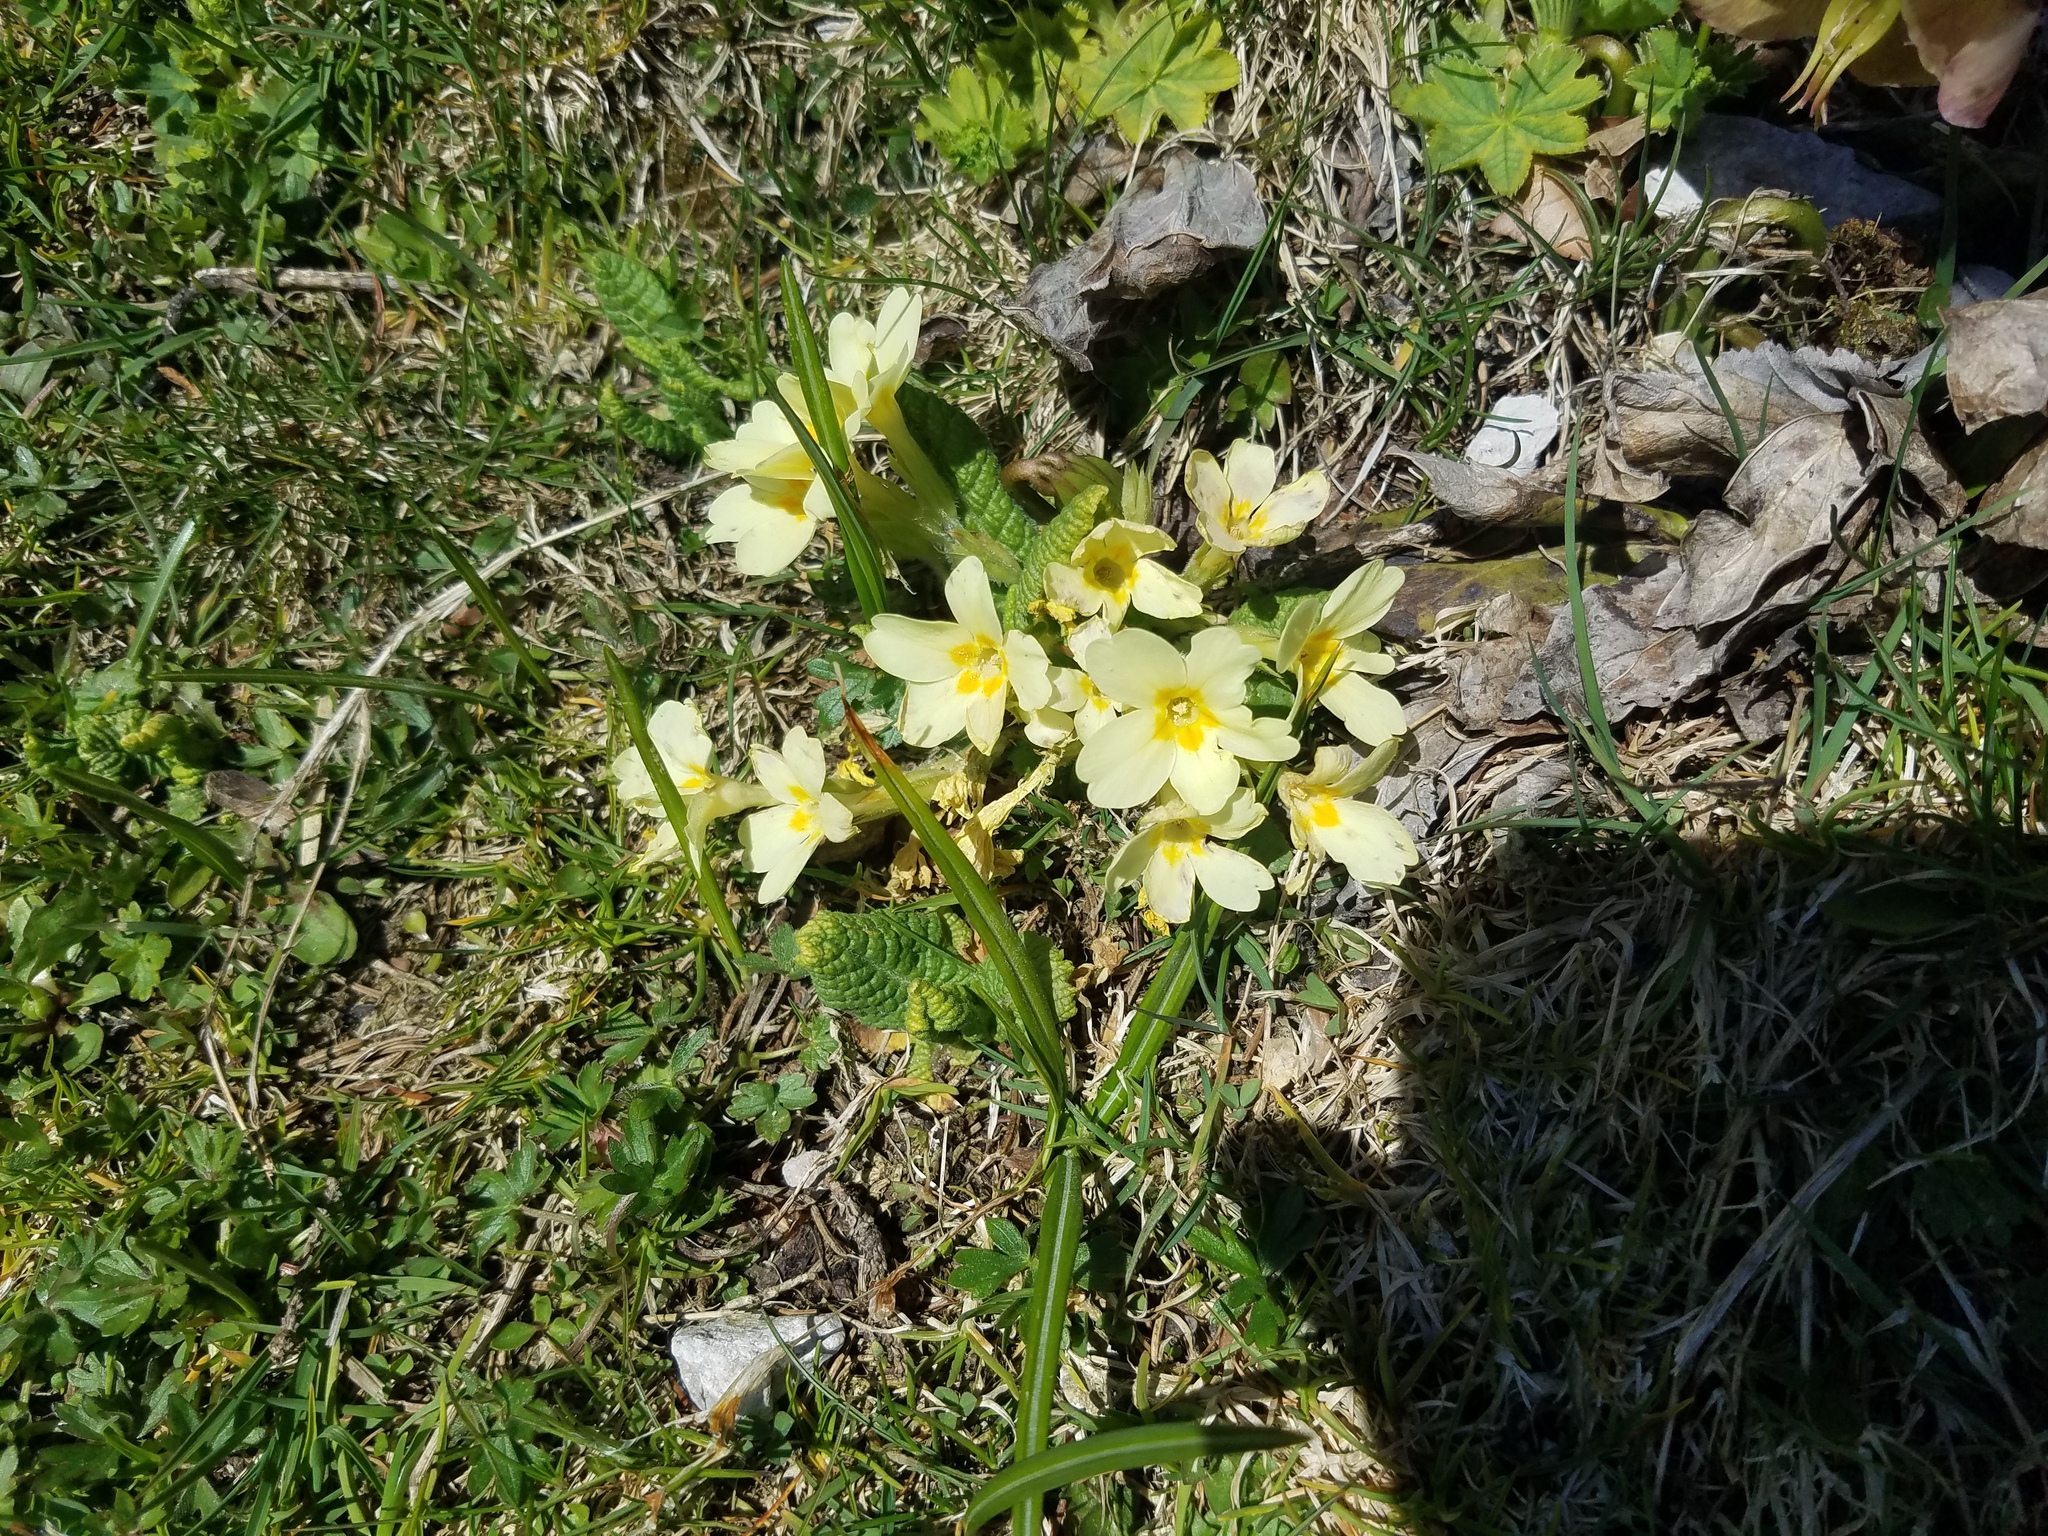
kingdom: Plantae
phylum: Tracheophyta
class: Magnoliopsida
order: Ericales
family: Primulaceae
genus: Primula
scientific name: Primula vulgaris
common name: Primrose
